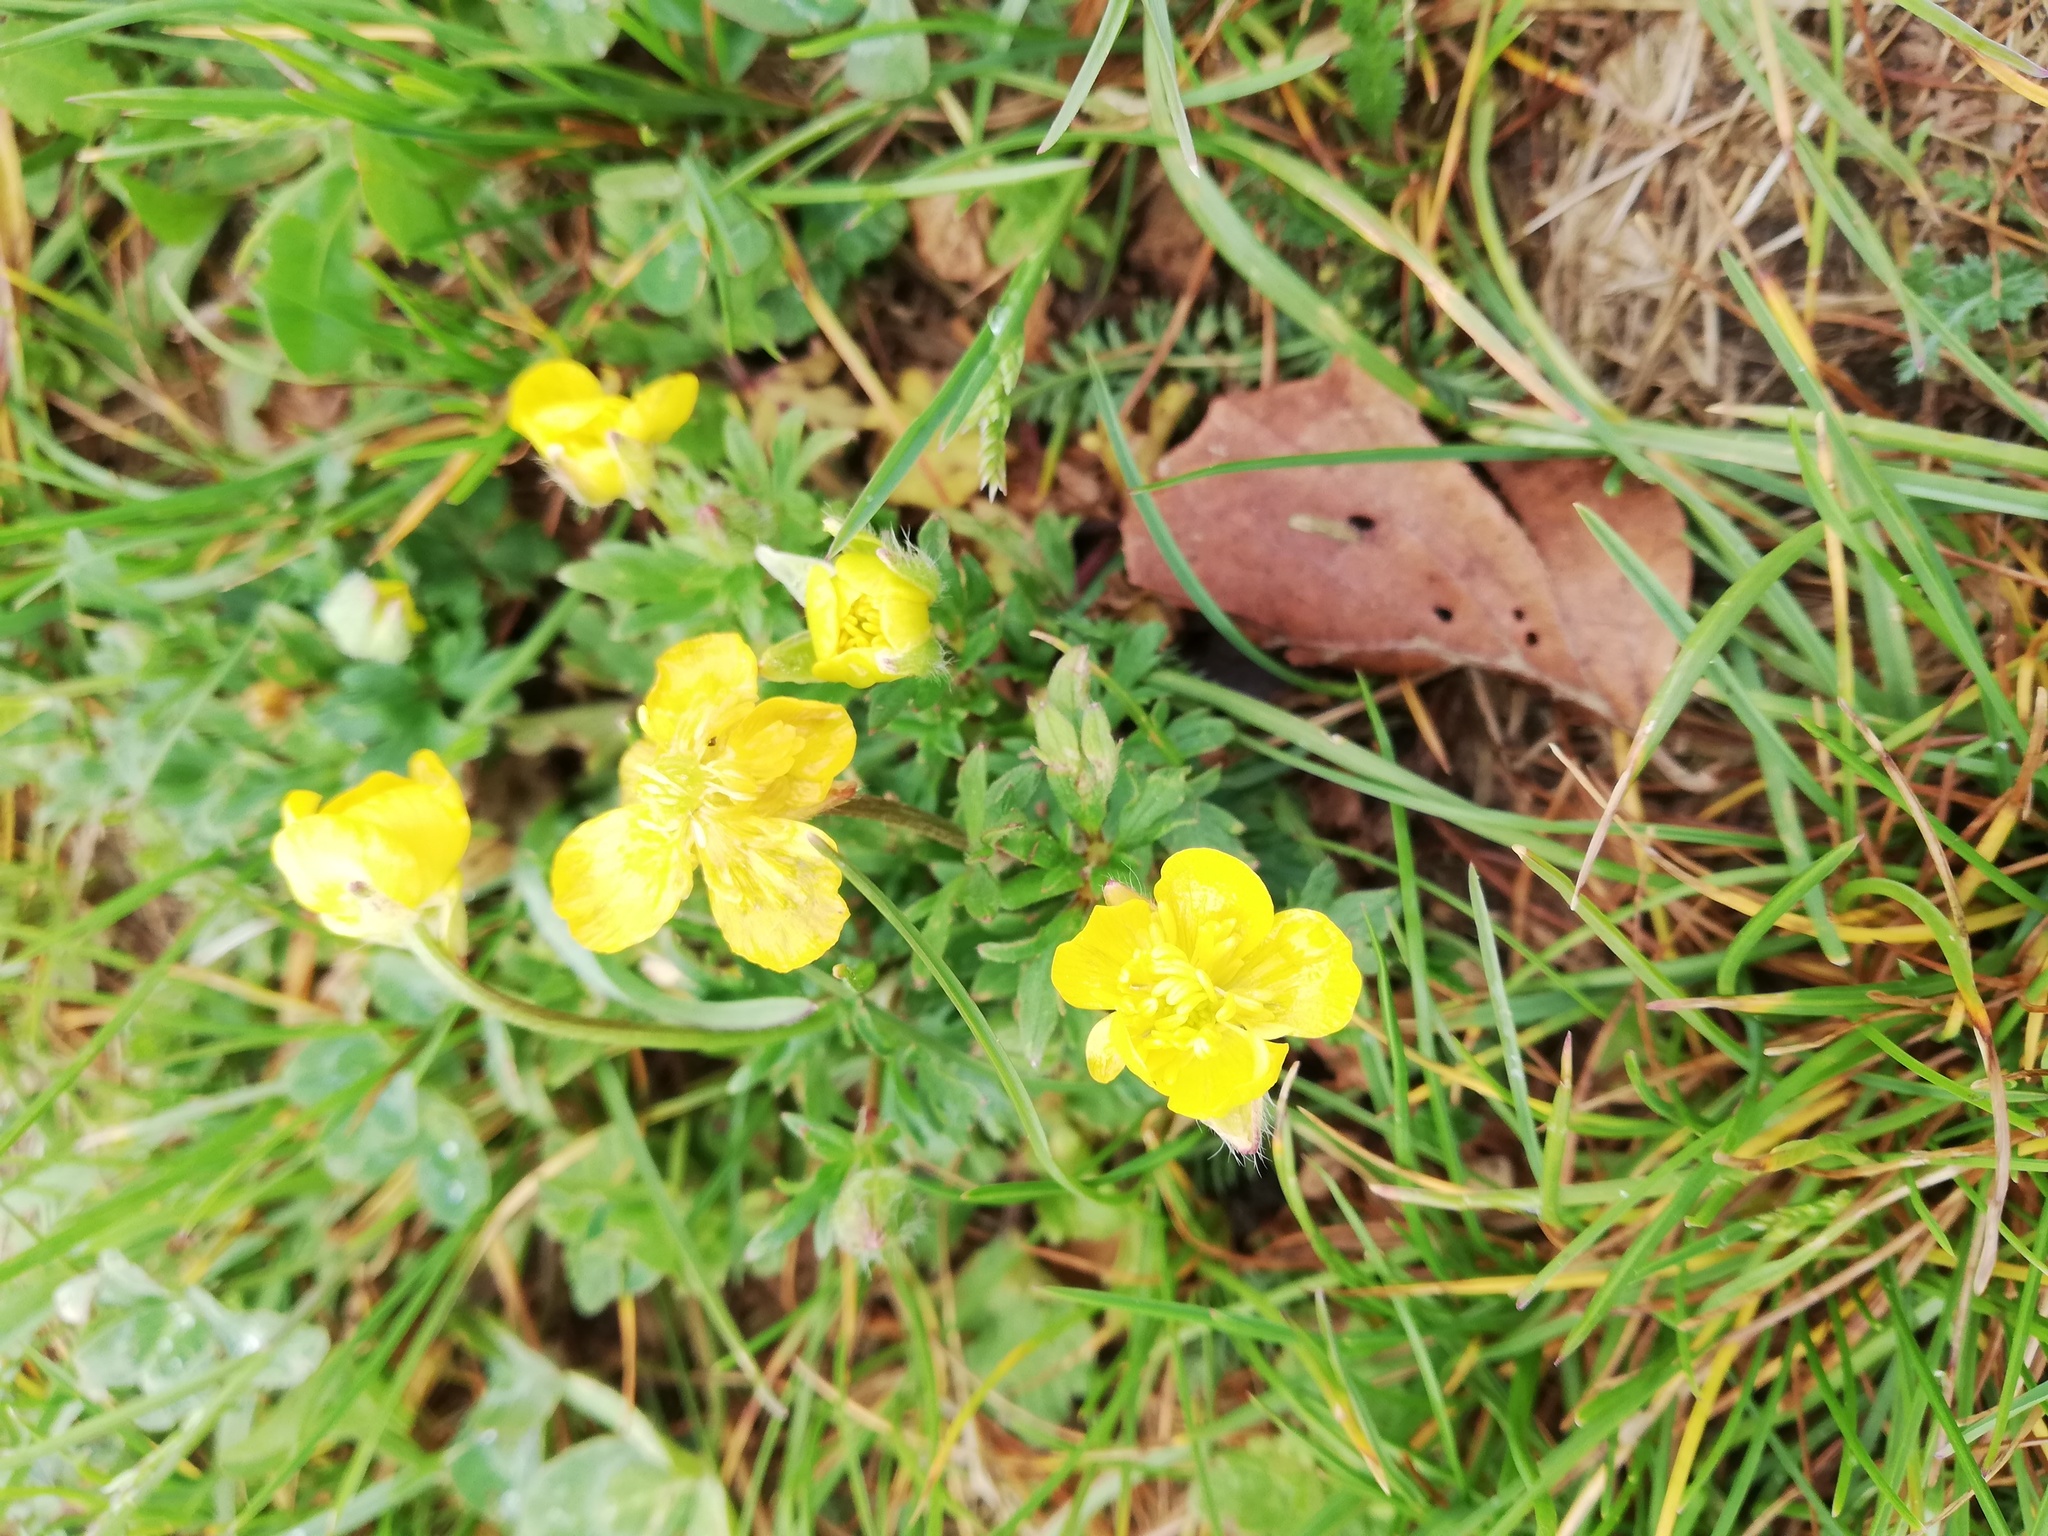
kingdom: Plantae
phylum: Tracheophyta
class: Magnoliopsida
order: Ranunculales
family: Ranunculaceae
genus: Ranunculus
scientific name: Ranunculus repens
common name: Creeping buttercup
